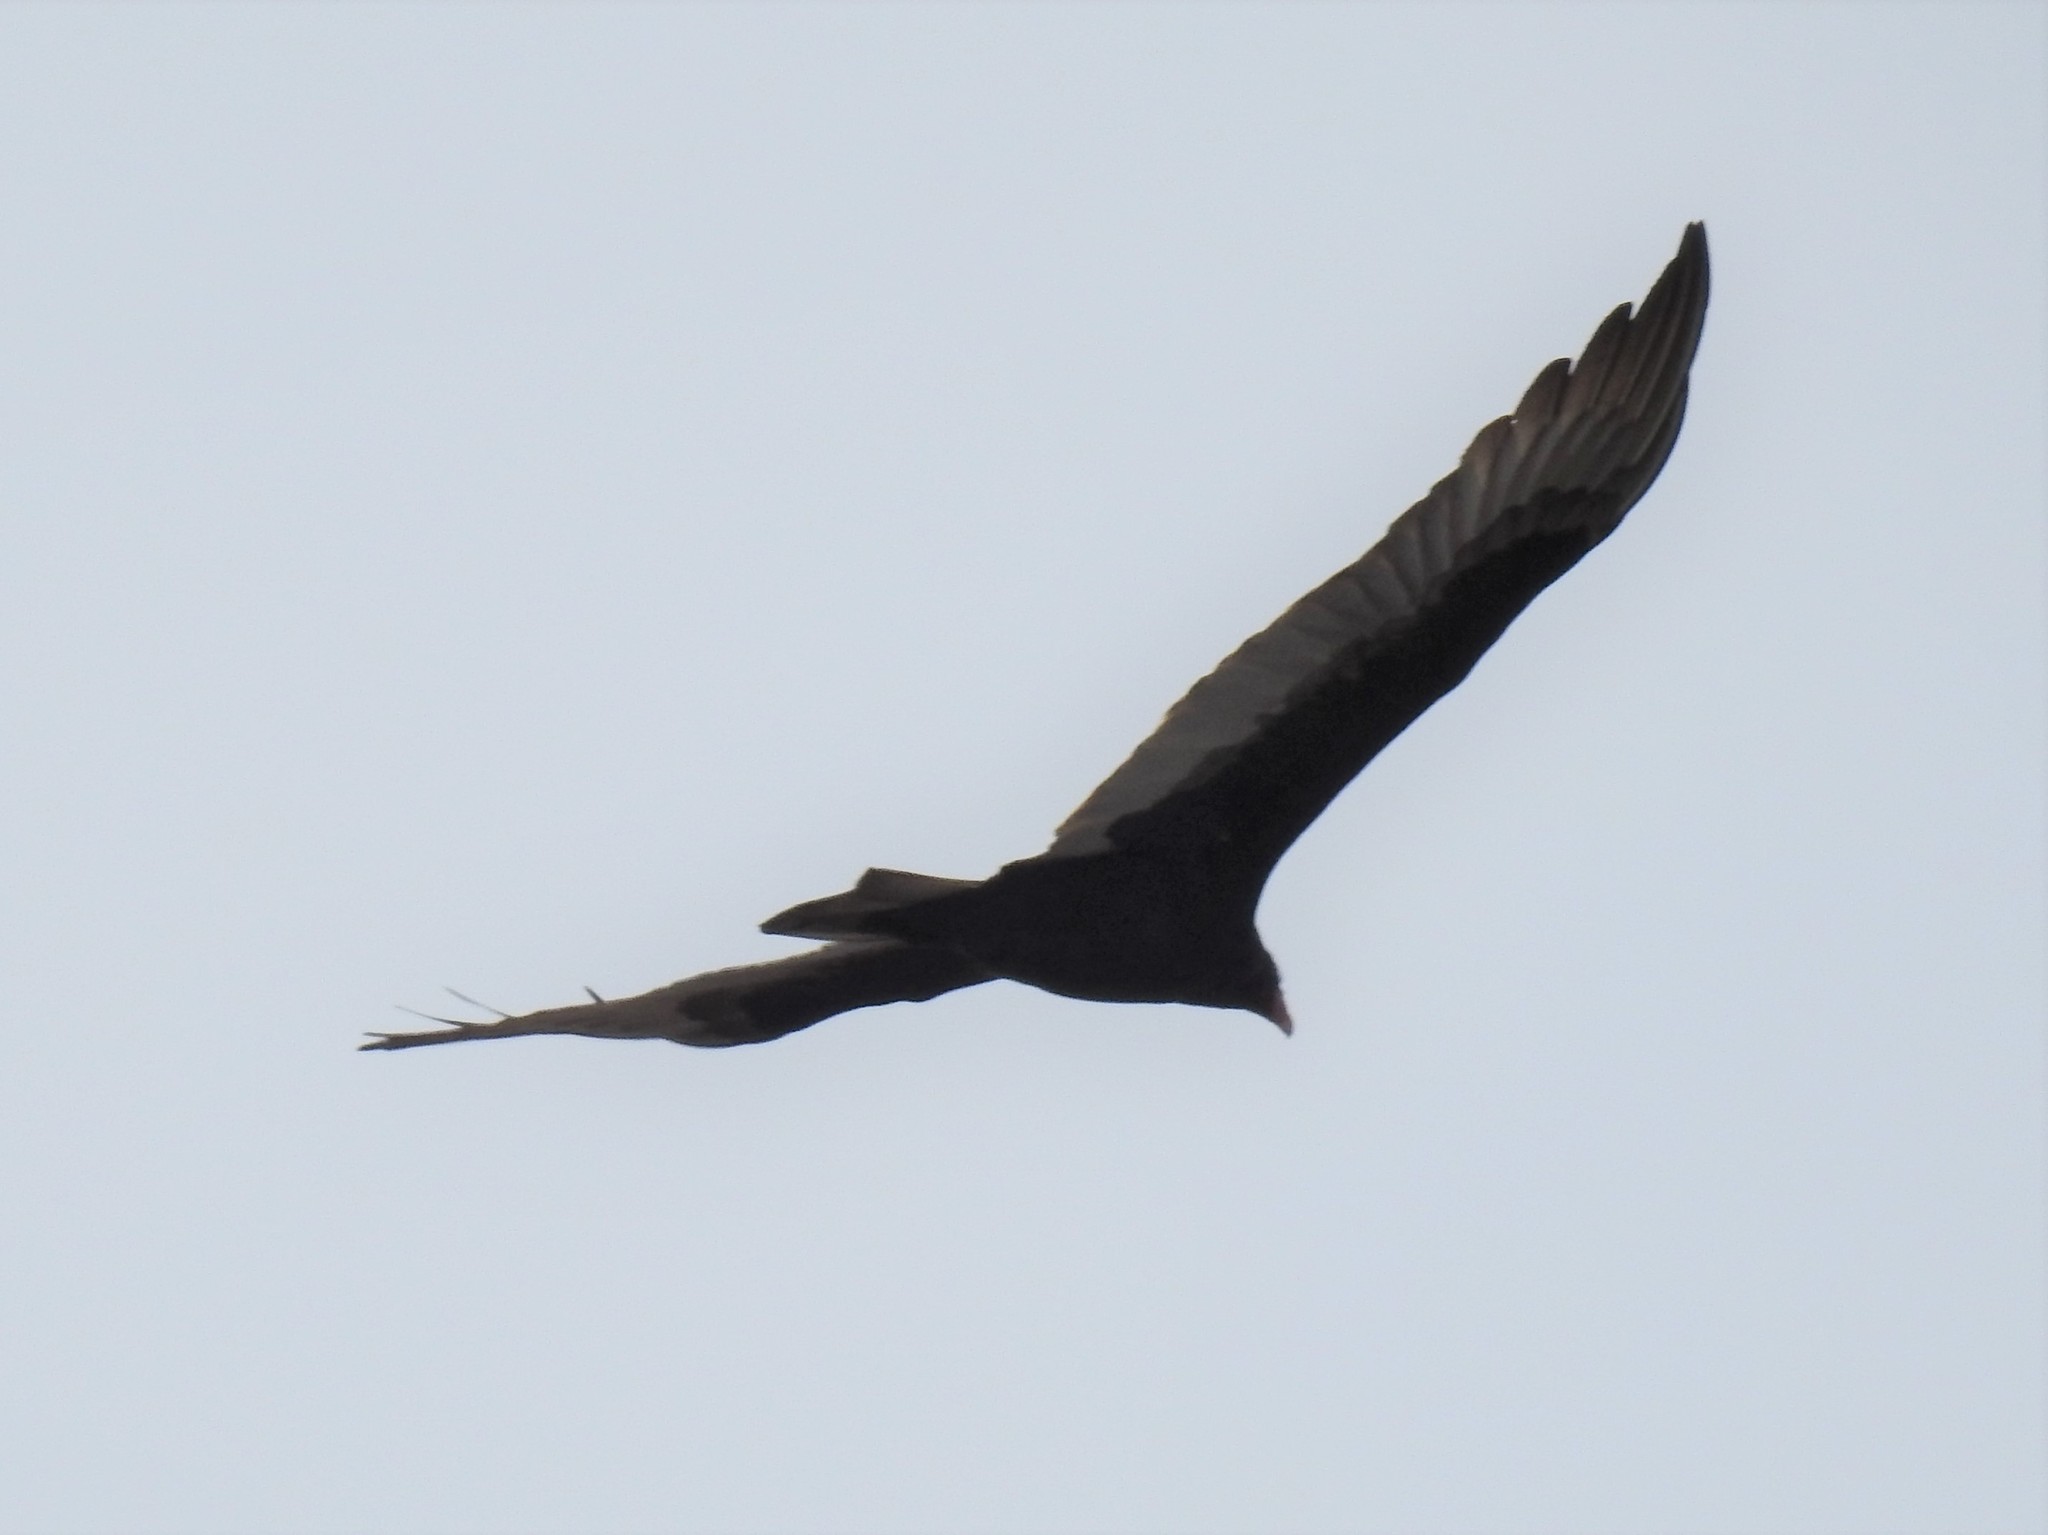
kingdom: Animalia
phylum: Chordata
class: Aves
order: Accipitriformes
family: Cathartidae
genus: Cathartes
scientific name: Cathartes aura
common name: Turkey vulture
